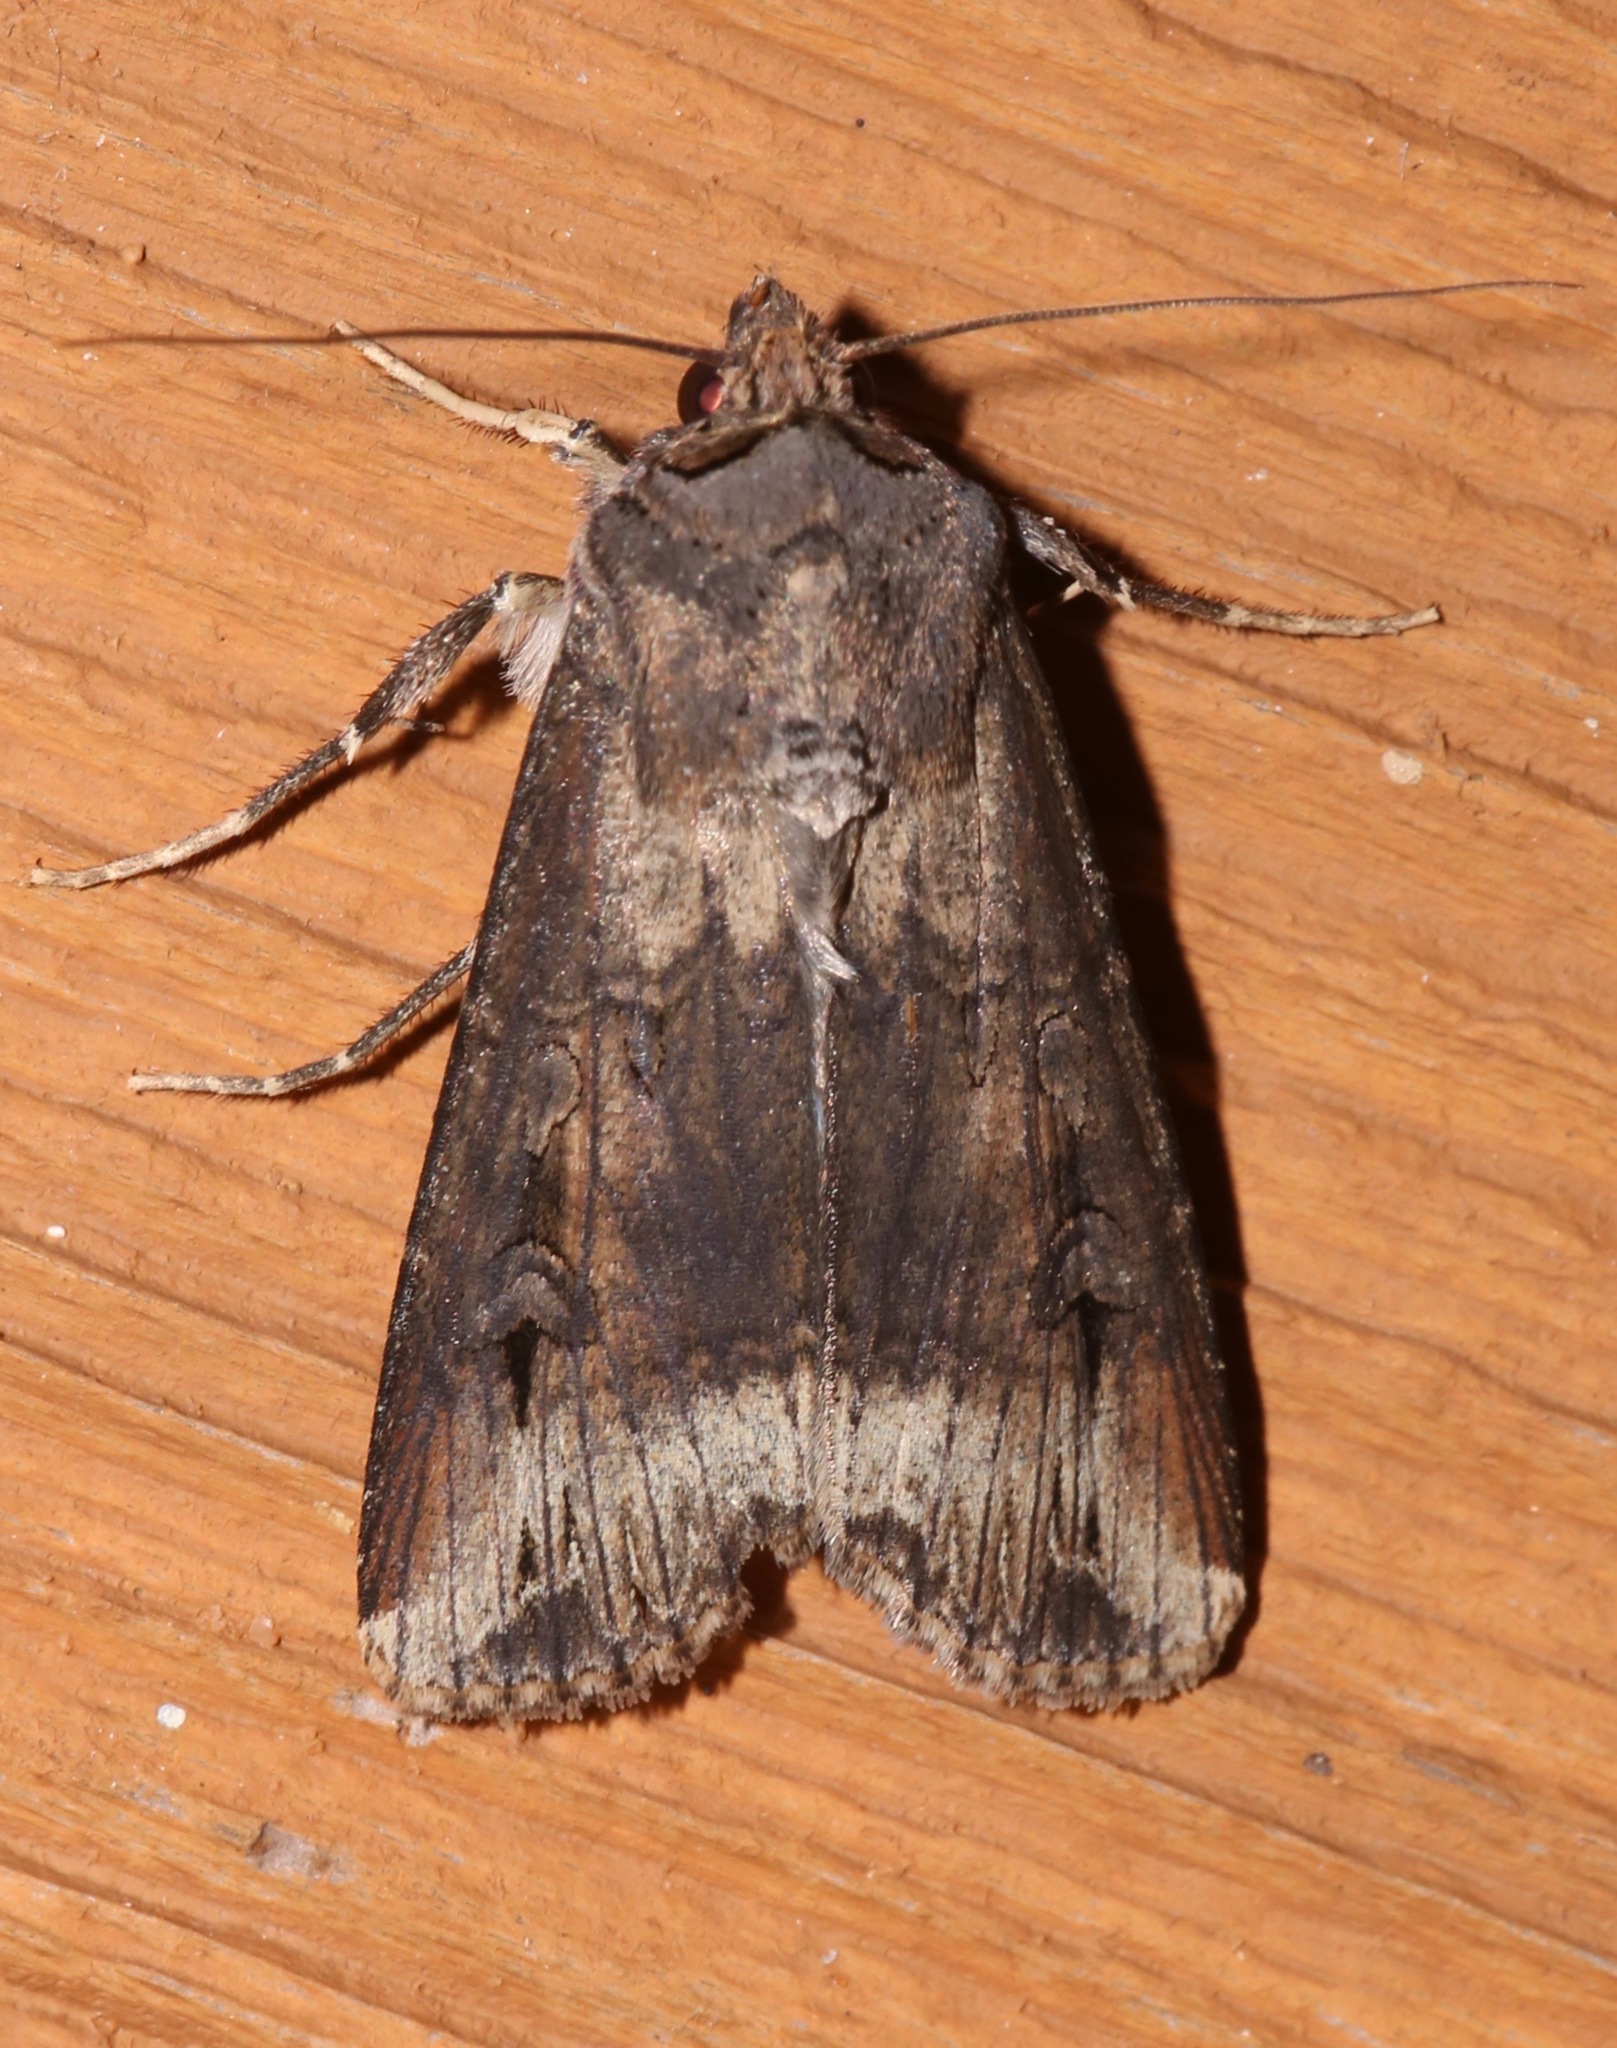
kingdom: Animalia
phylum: Arthropoda
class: Insecta
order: Lepidoptera
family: Noctuidae
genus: Agrotis
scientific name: Agrotis ipsilon
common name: Dark sword-grass
